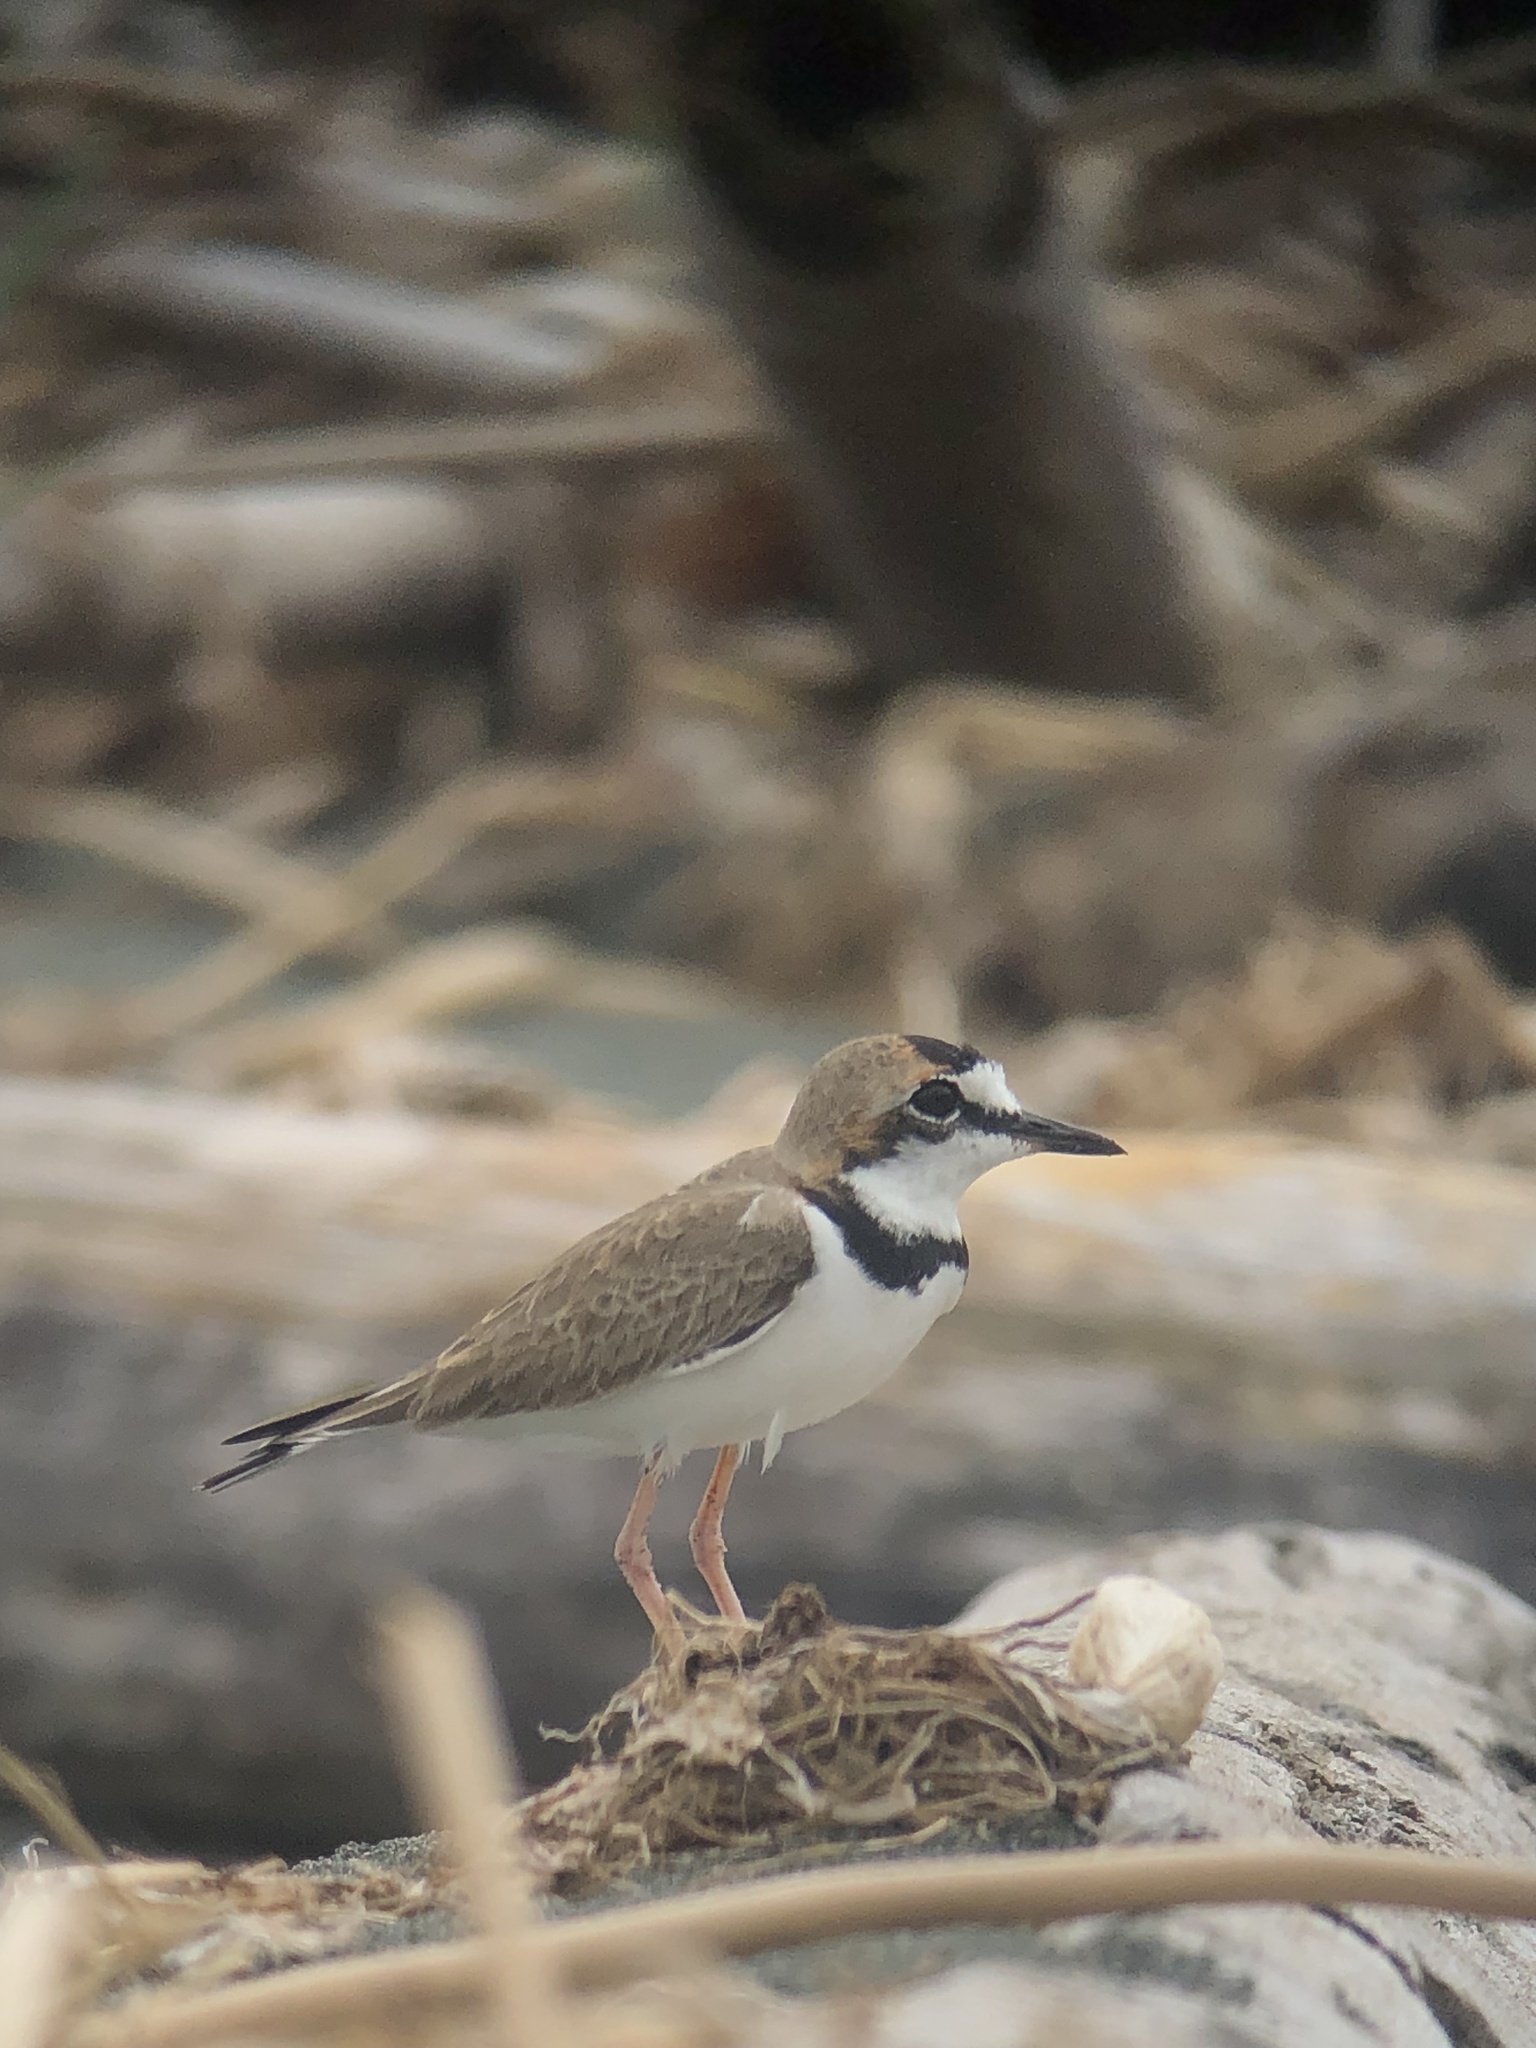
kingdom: Animalia
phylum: Chordata
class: Aves
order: Charadriiformes
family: Charadriidae
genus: Anarhynchus
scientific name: Anarhynchus
